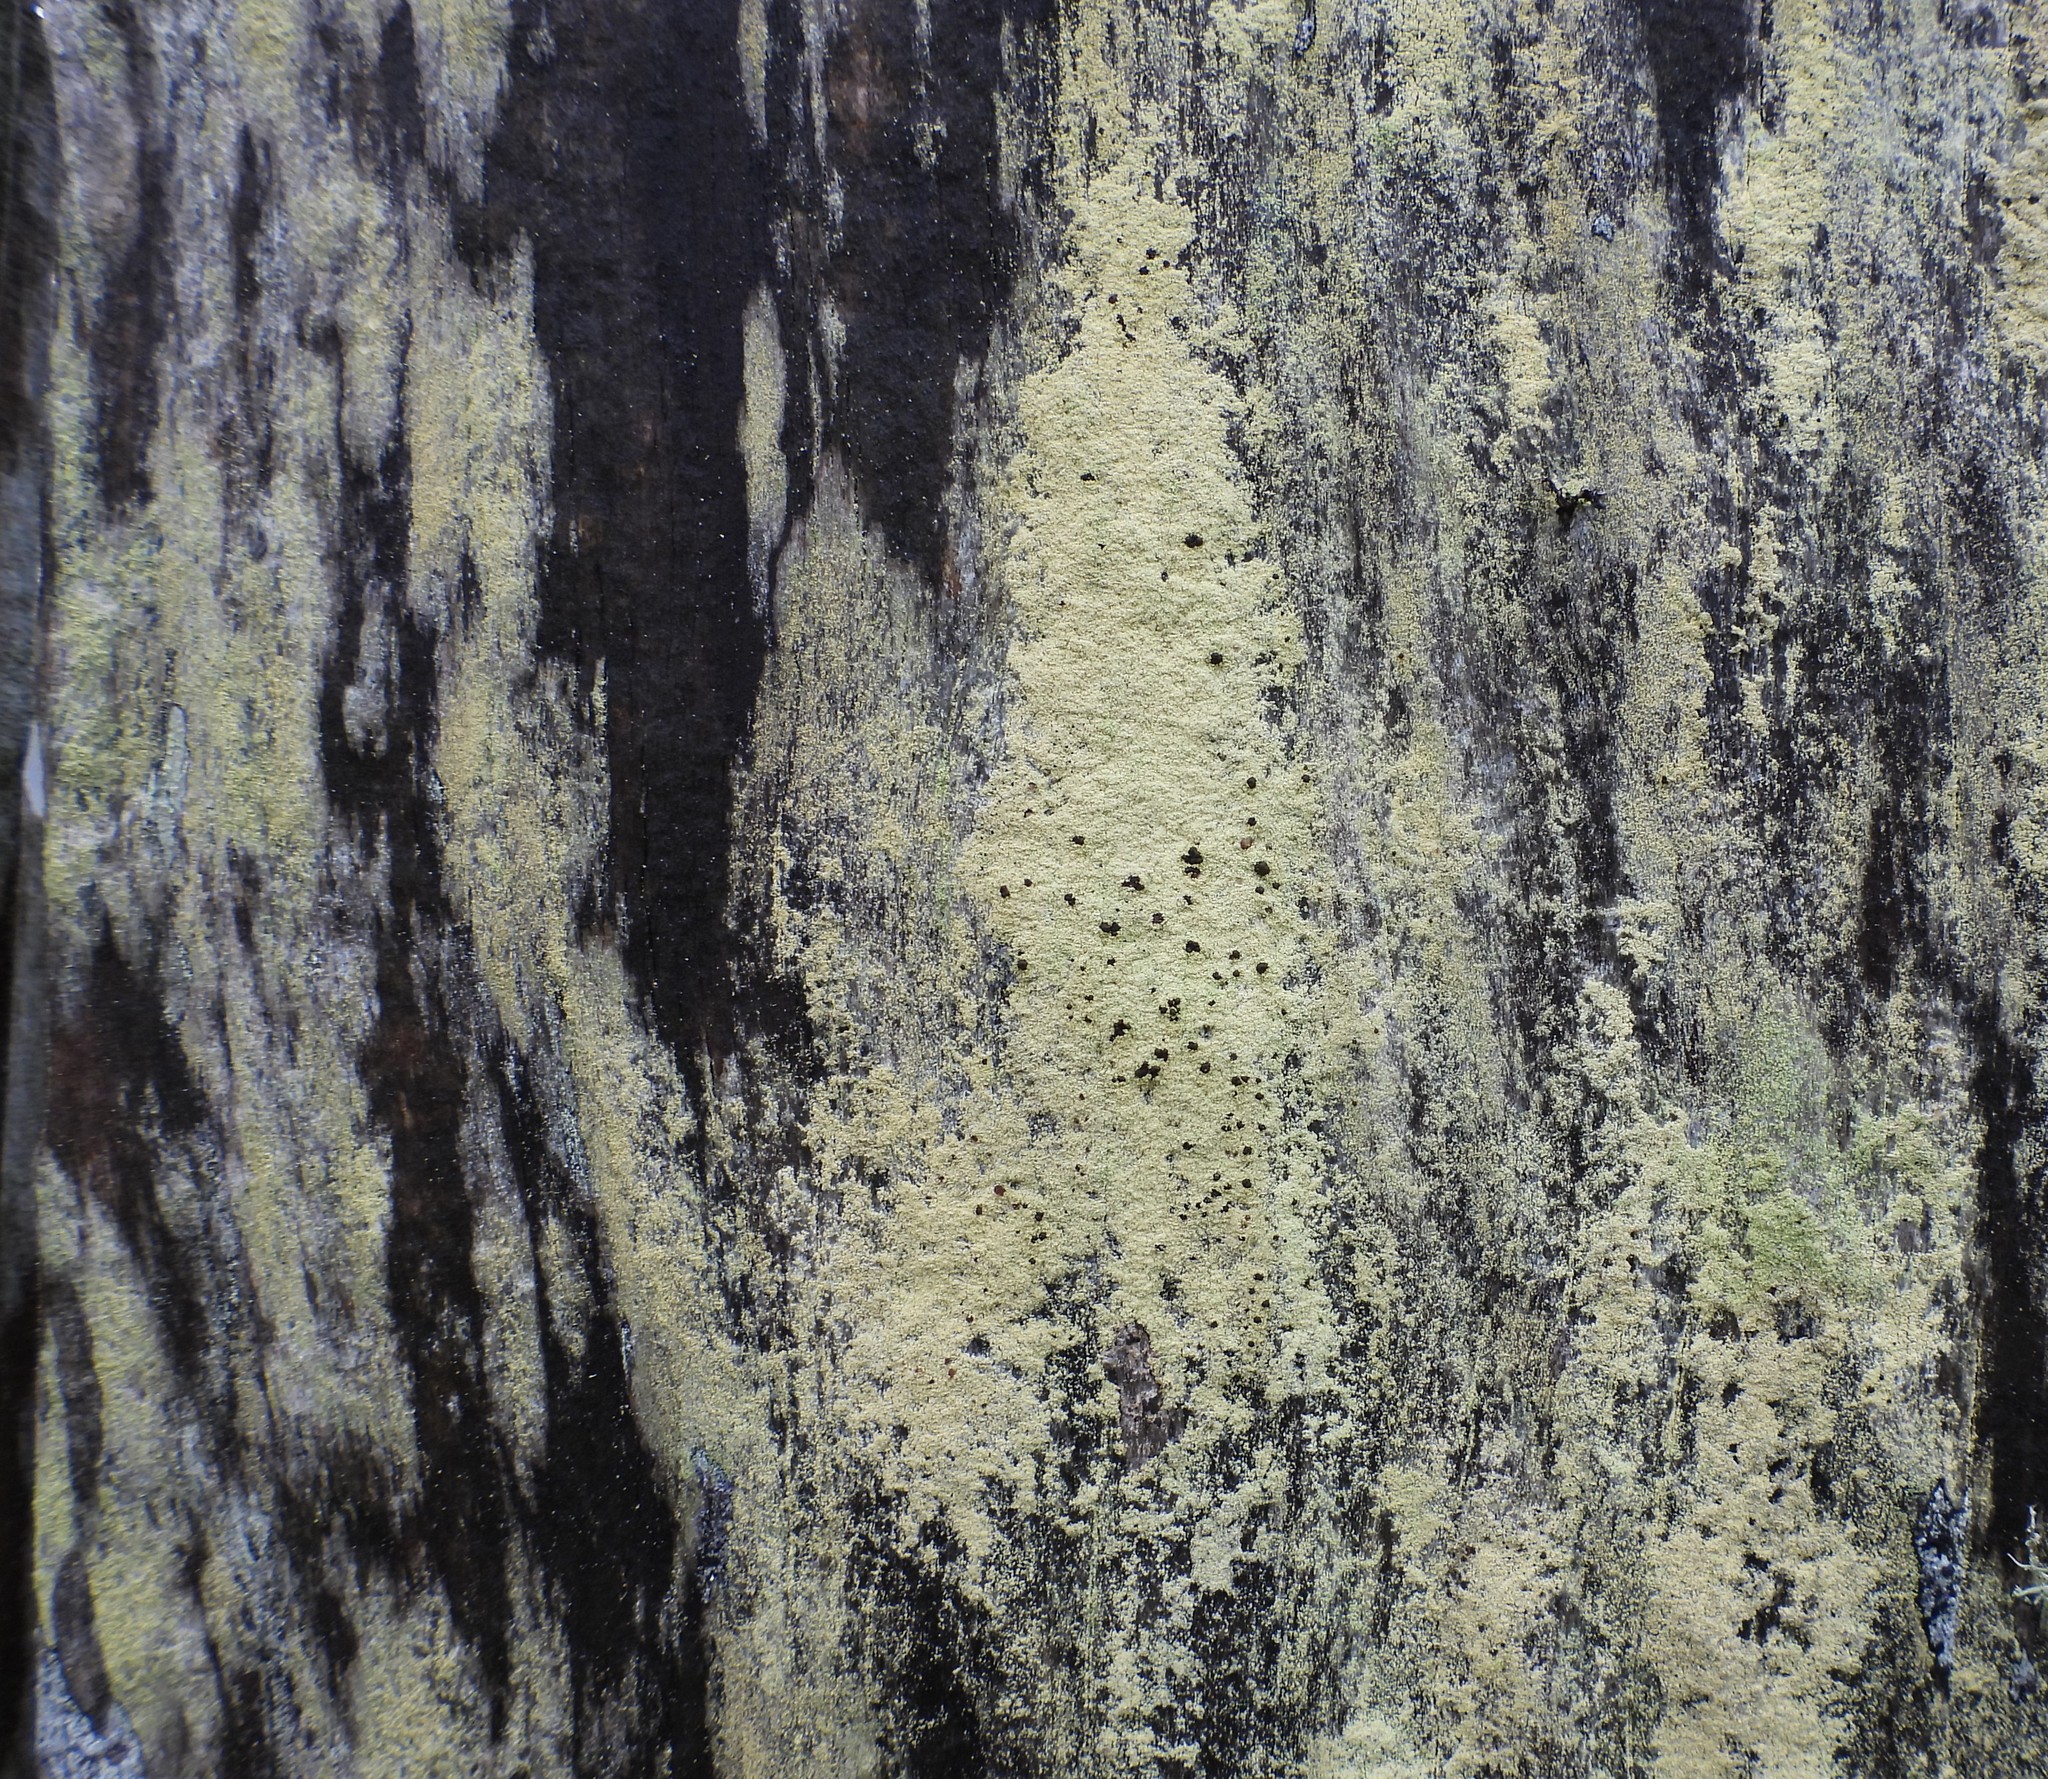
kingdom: Fungi
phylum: Ascomycota
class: Lecanoromycetes
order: Lecanorales
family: Lecanoraceae
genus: Pyrrhospora
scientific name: Pyrrhospora quernea
